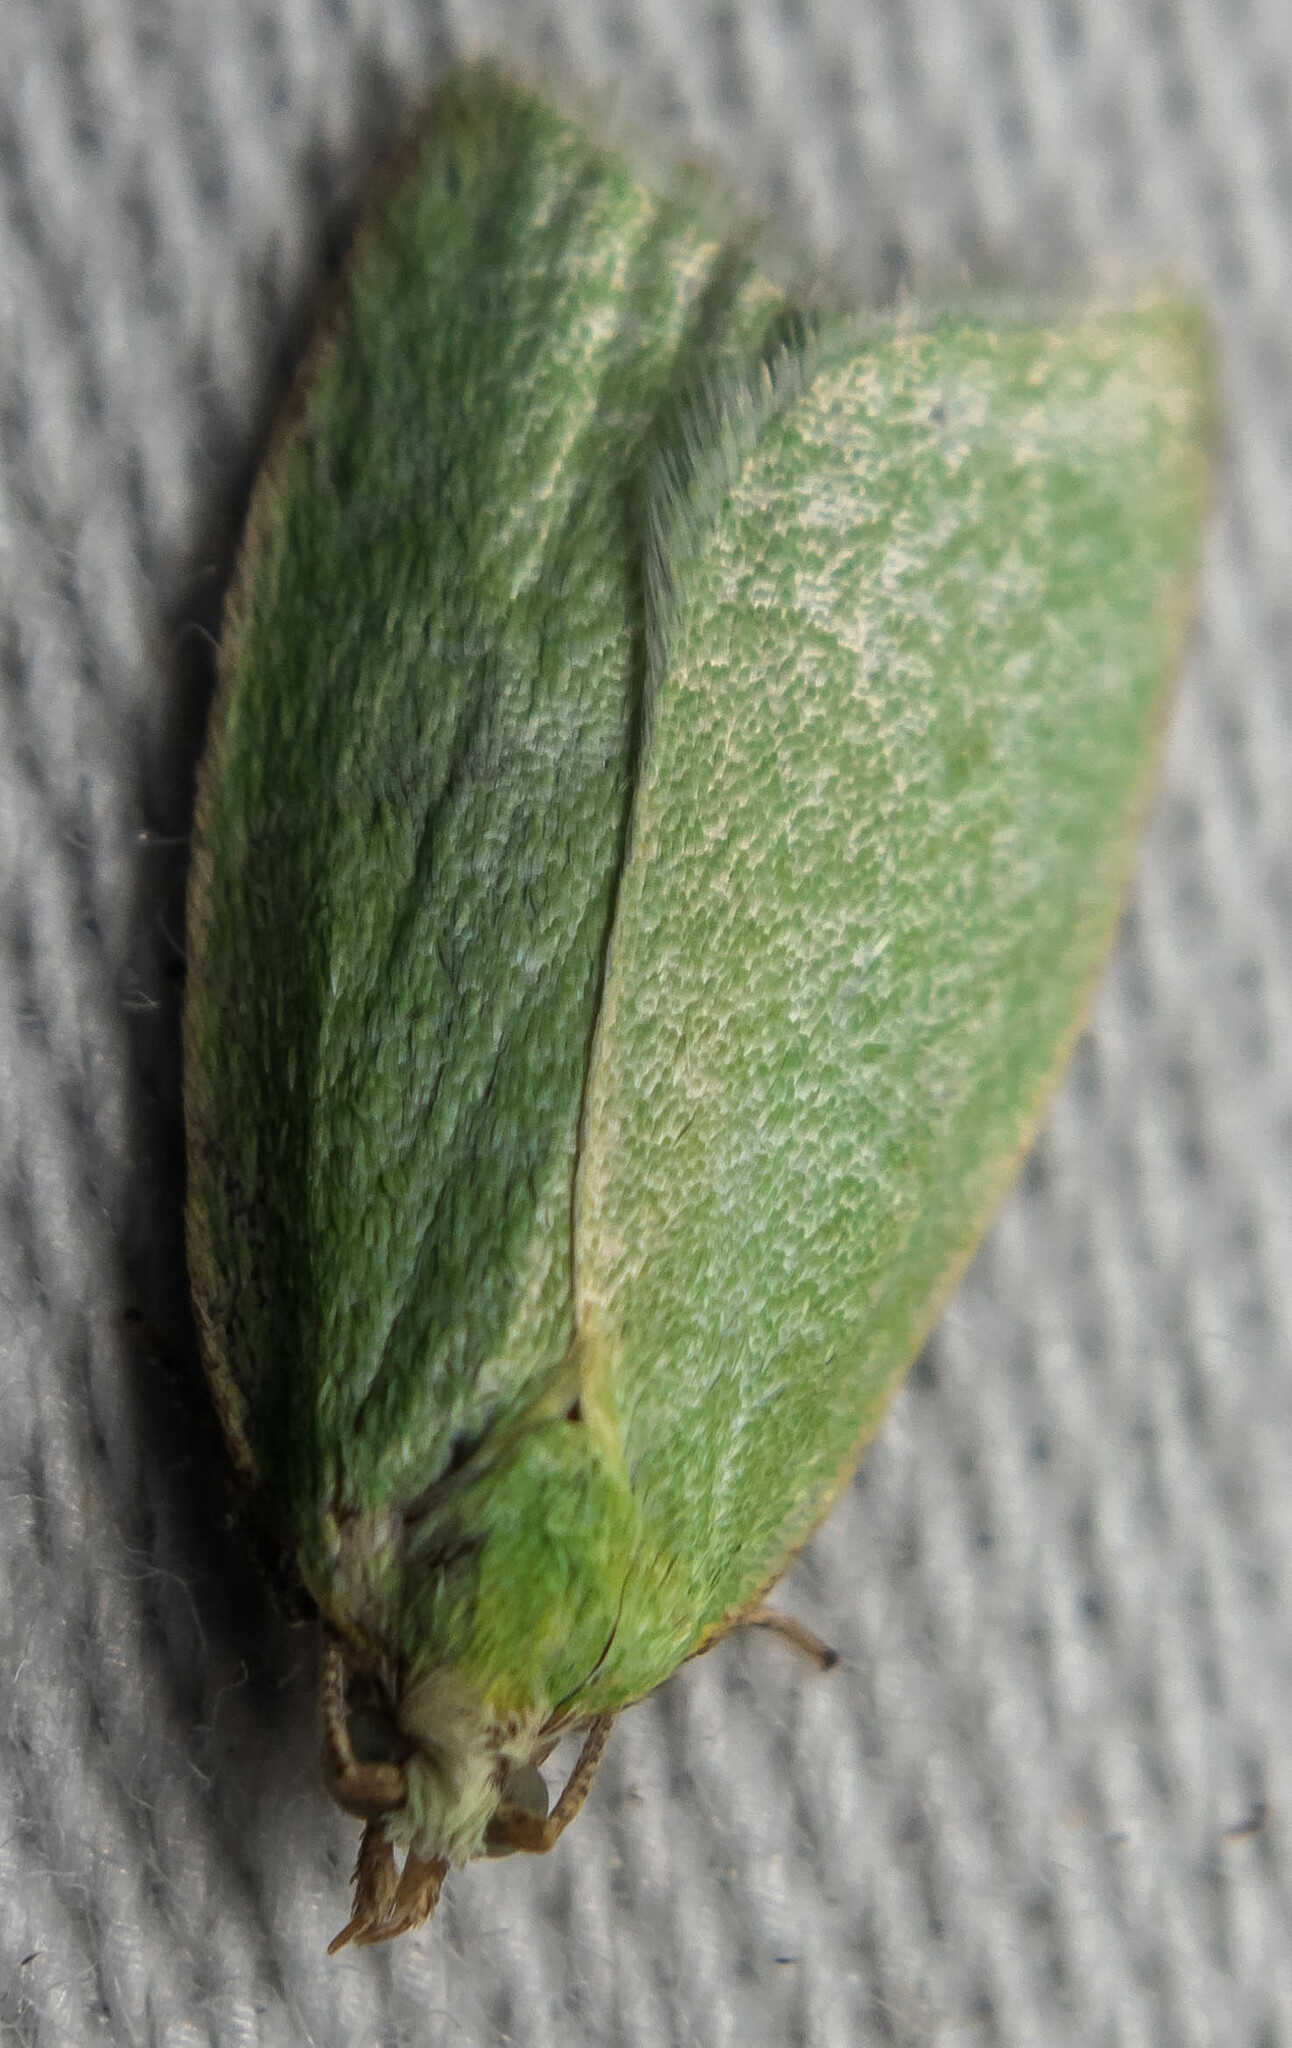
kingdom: Animalia
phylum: Arthropoda
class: Insecta
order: Lepidoptera
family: Tortricidae
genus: Tortrix
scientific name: Tortrix viridana
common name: Green oak tortrix
